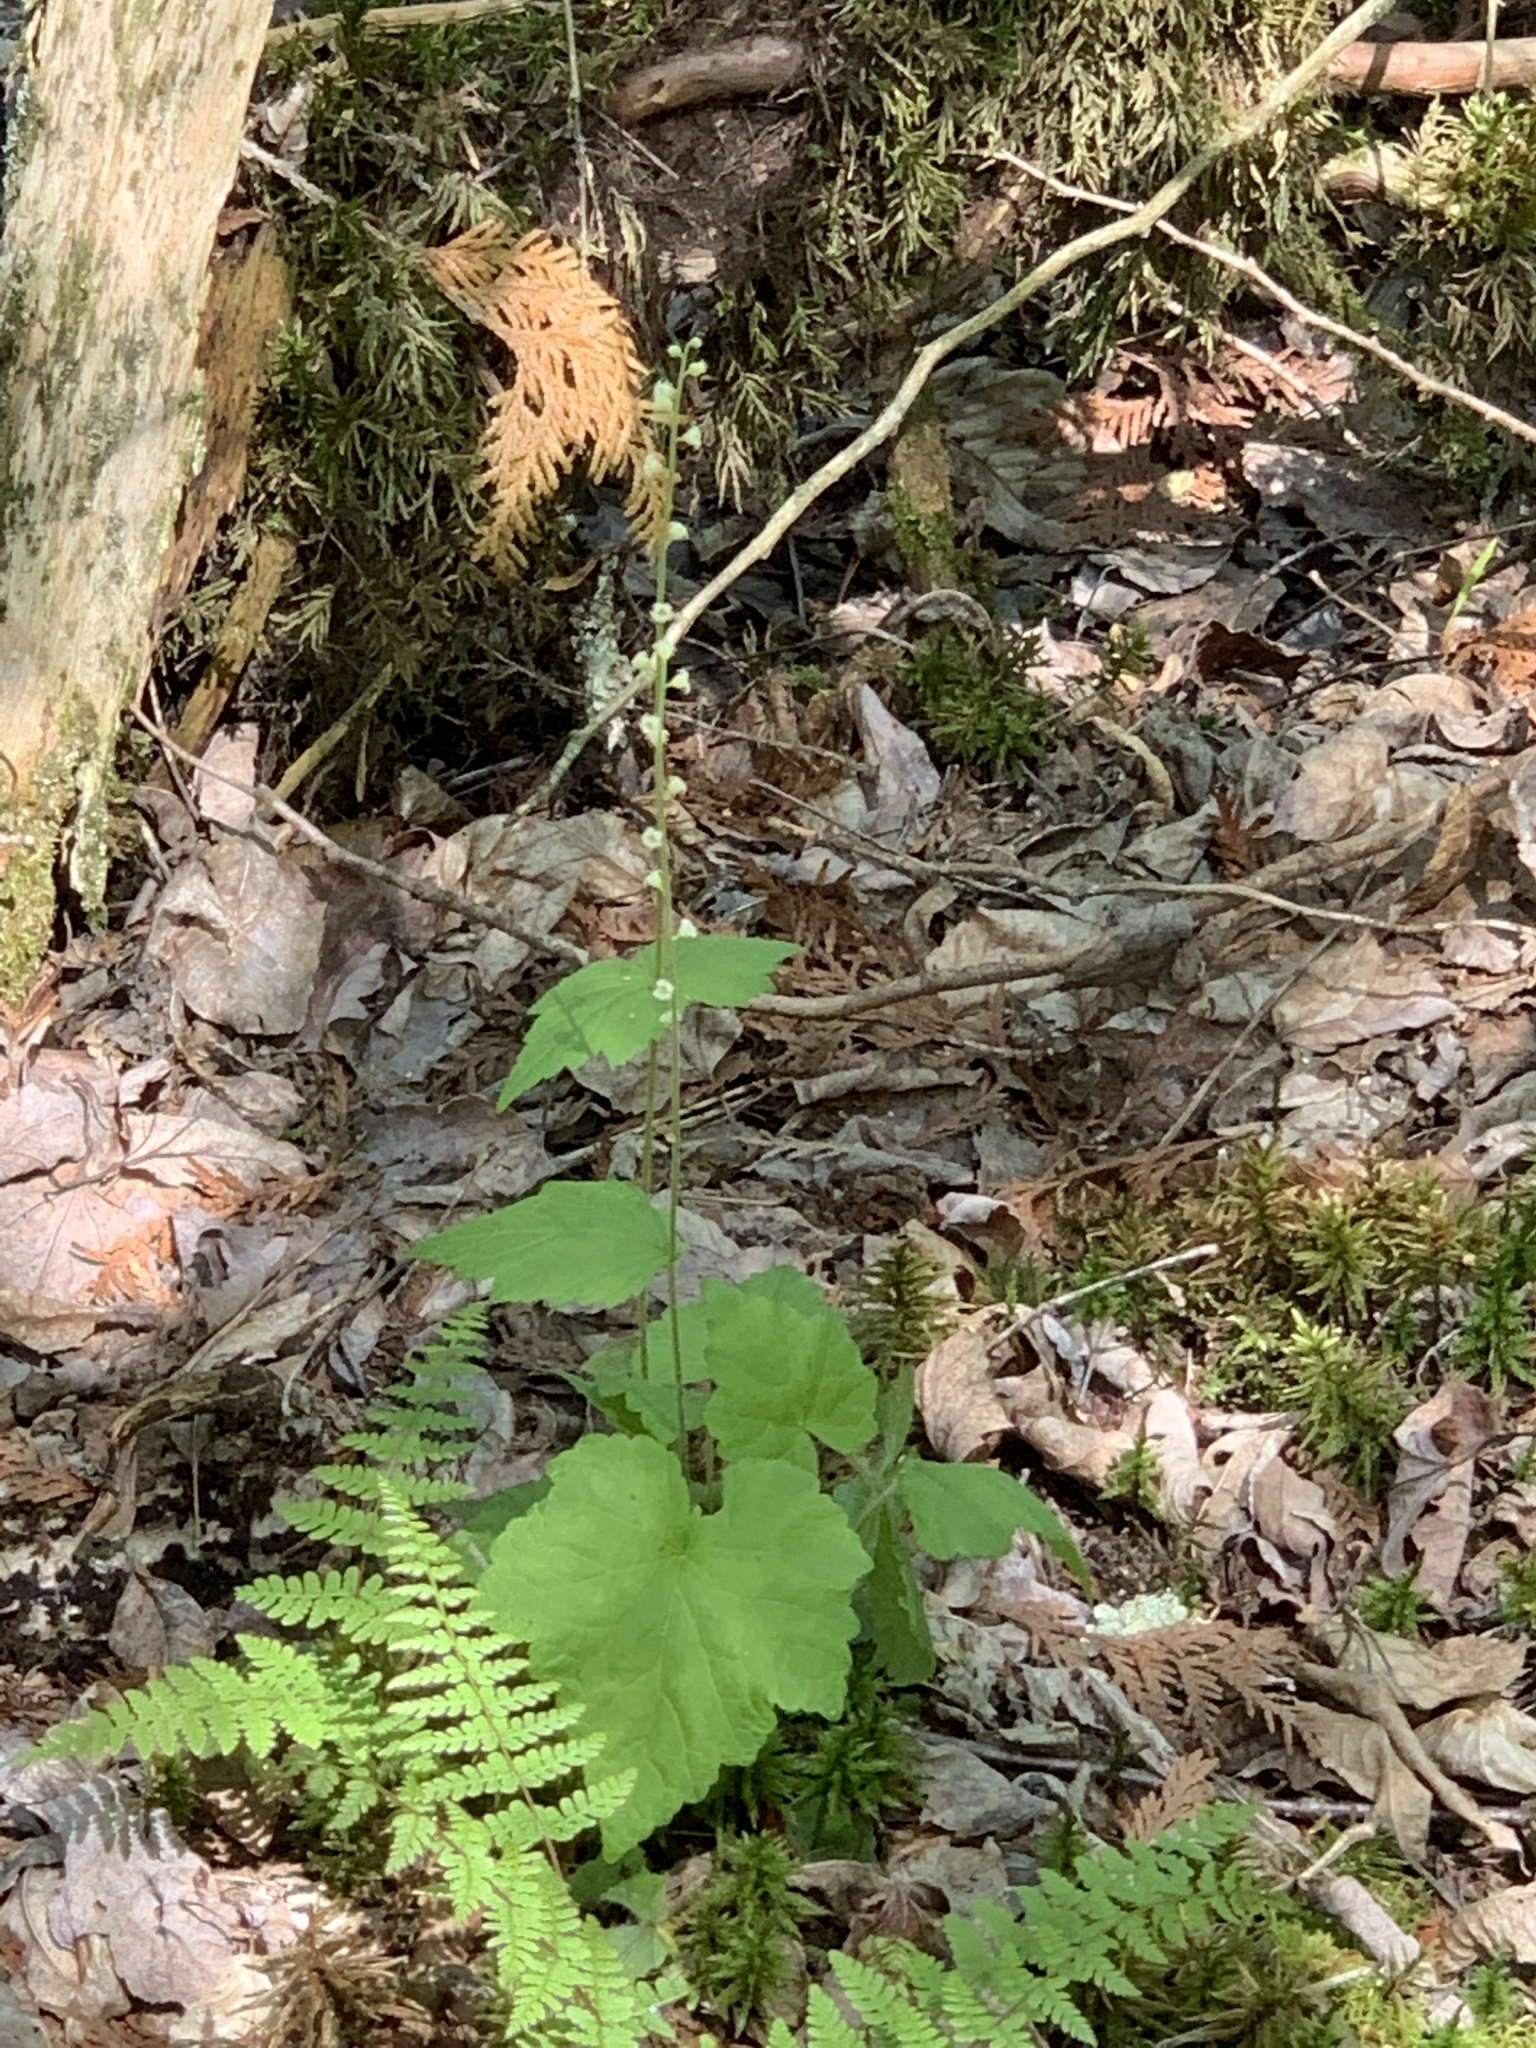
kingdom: Plantae
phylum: Tracheophyta
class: Magnoliopsida
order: Saxifragales
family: Saxifragaceae
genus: Mitella
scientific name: Mitella diphylla
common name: Coolwort
